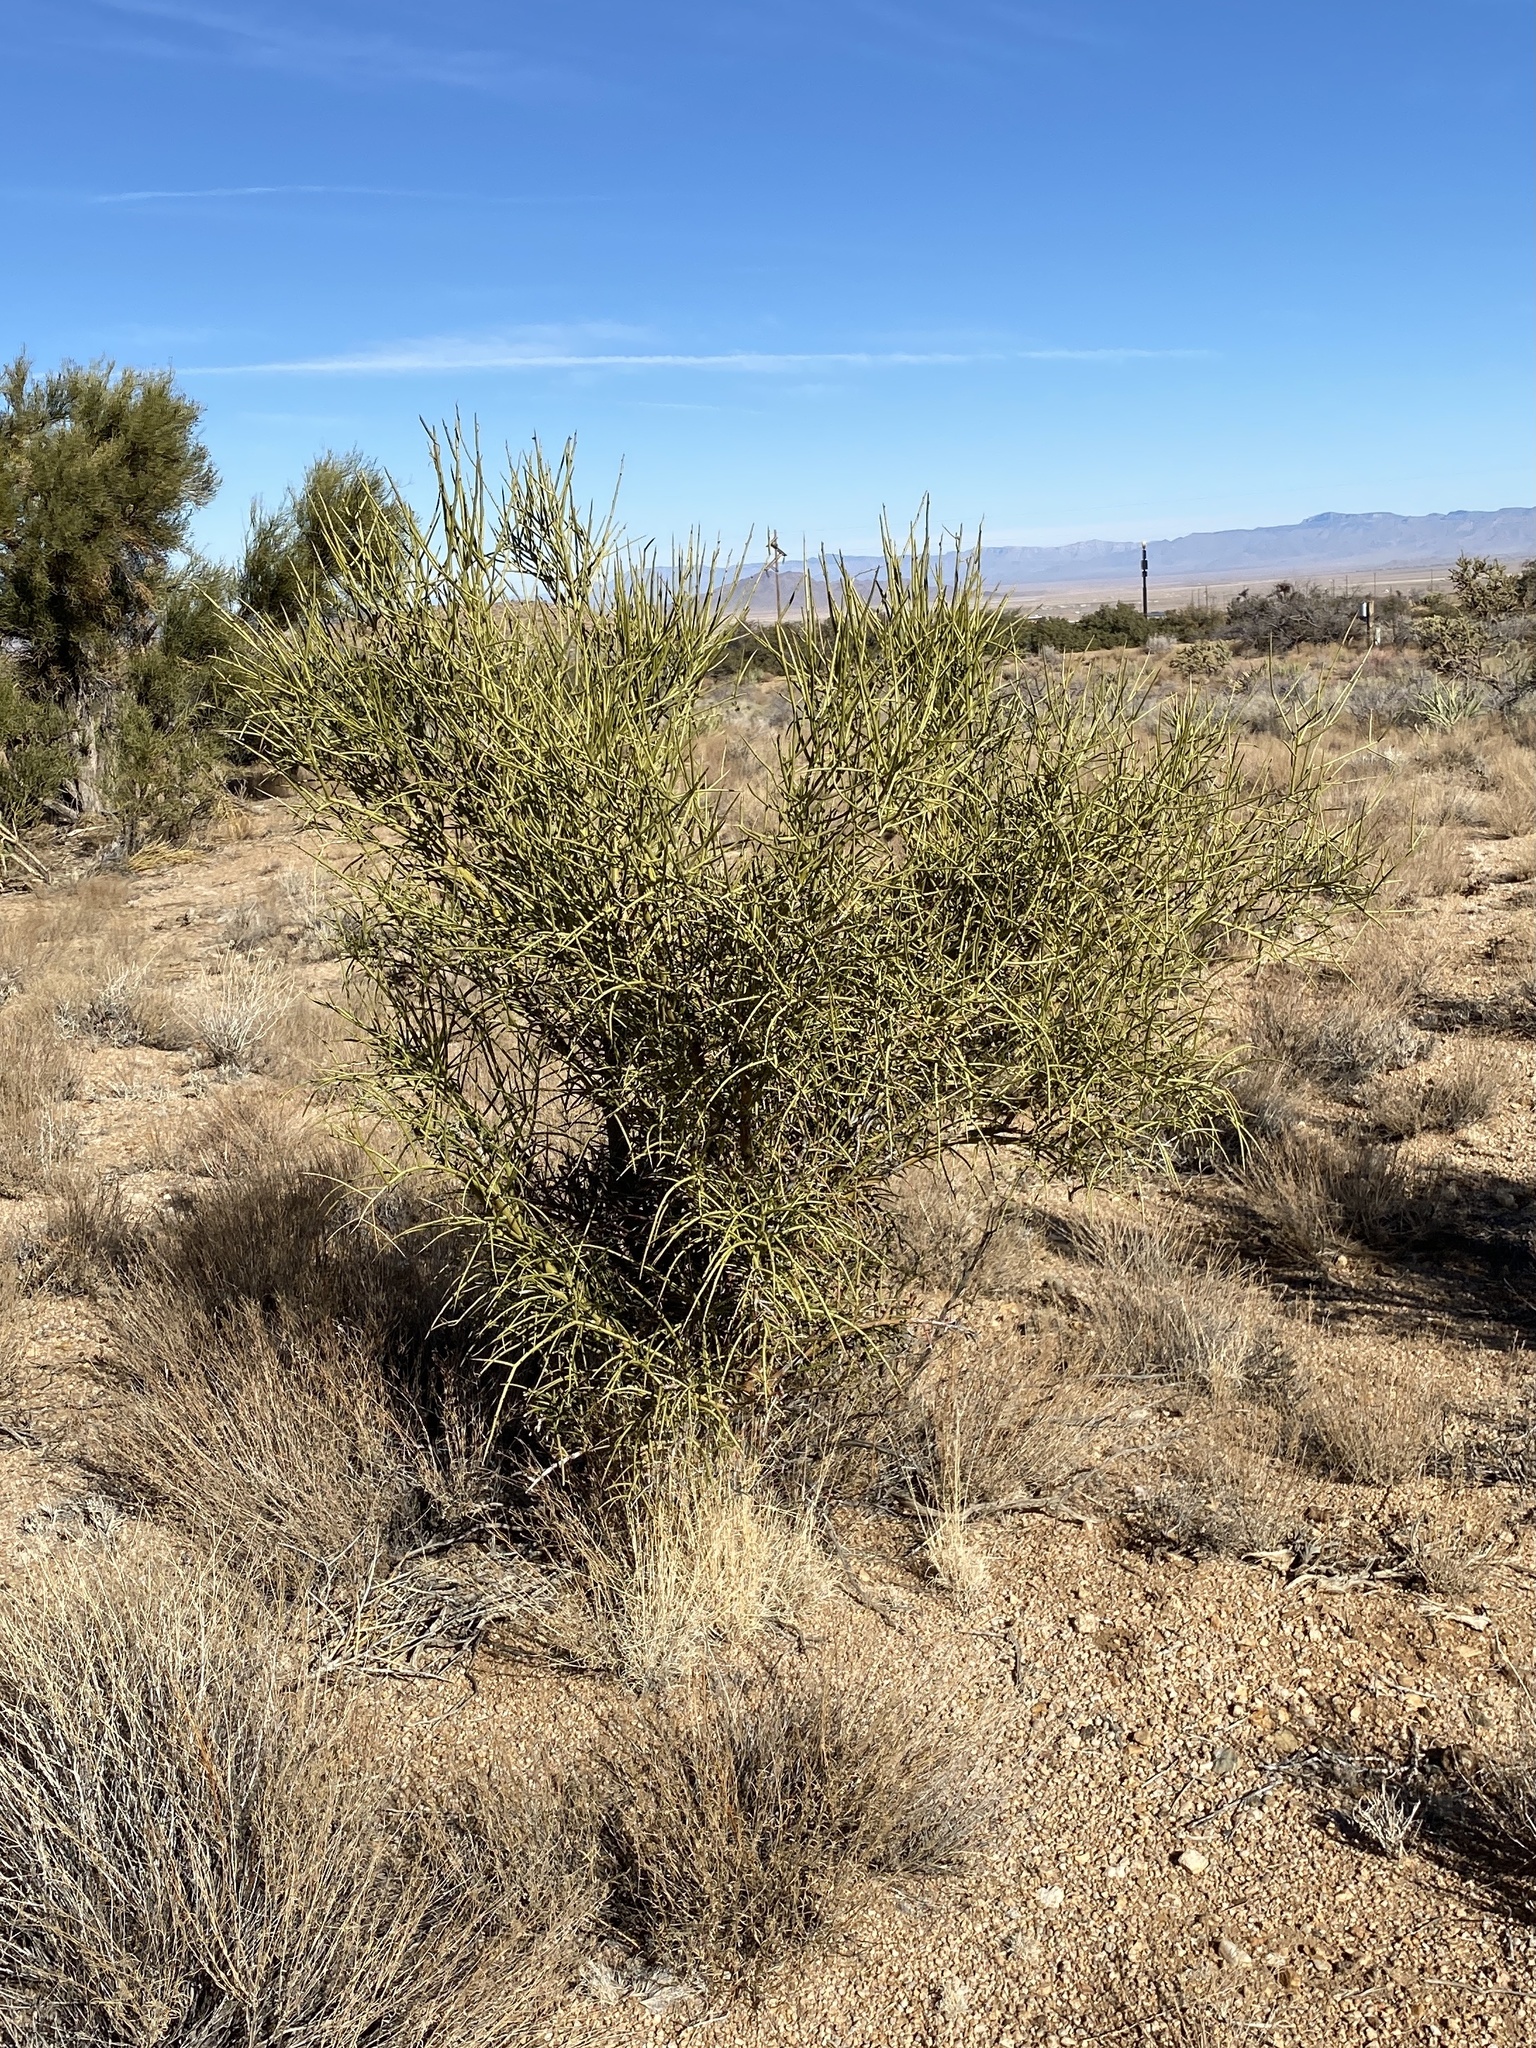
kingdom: Plantae
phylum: Tracheophyta
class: Magnoliopsida
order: Celastrales
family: Celastraceae
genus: Canotia
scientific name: Canotia holacantha
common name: Crucifixion thorns
